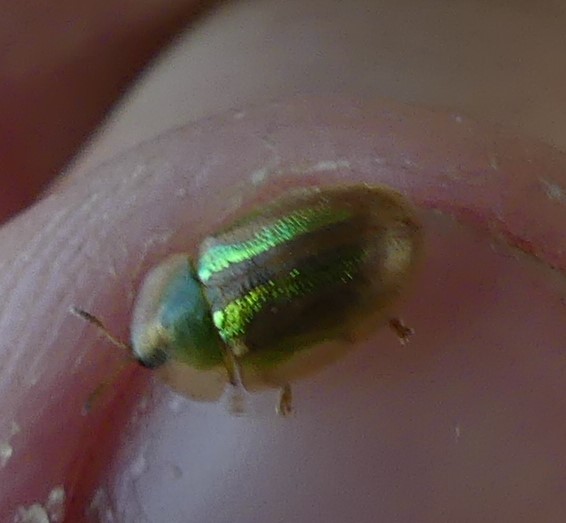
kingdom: Animalia
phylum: Arthropoda
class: Insecta
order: Coleoptera
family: Chrysomelidae
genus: Cassida
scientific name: Cassida vittata
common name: Bordered tortoise beetle
